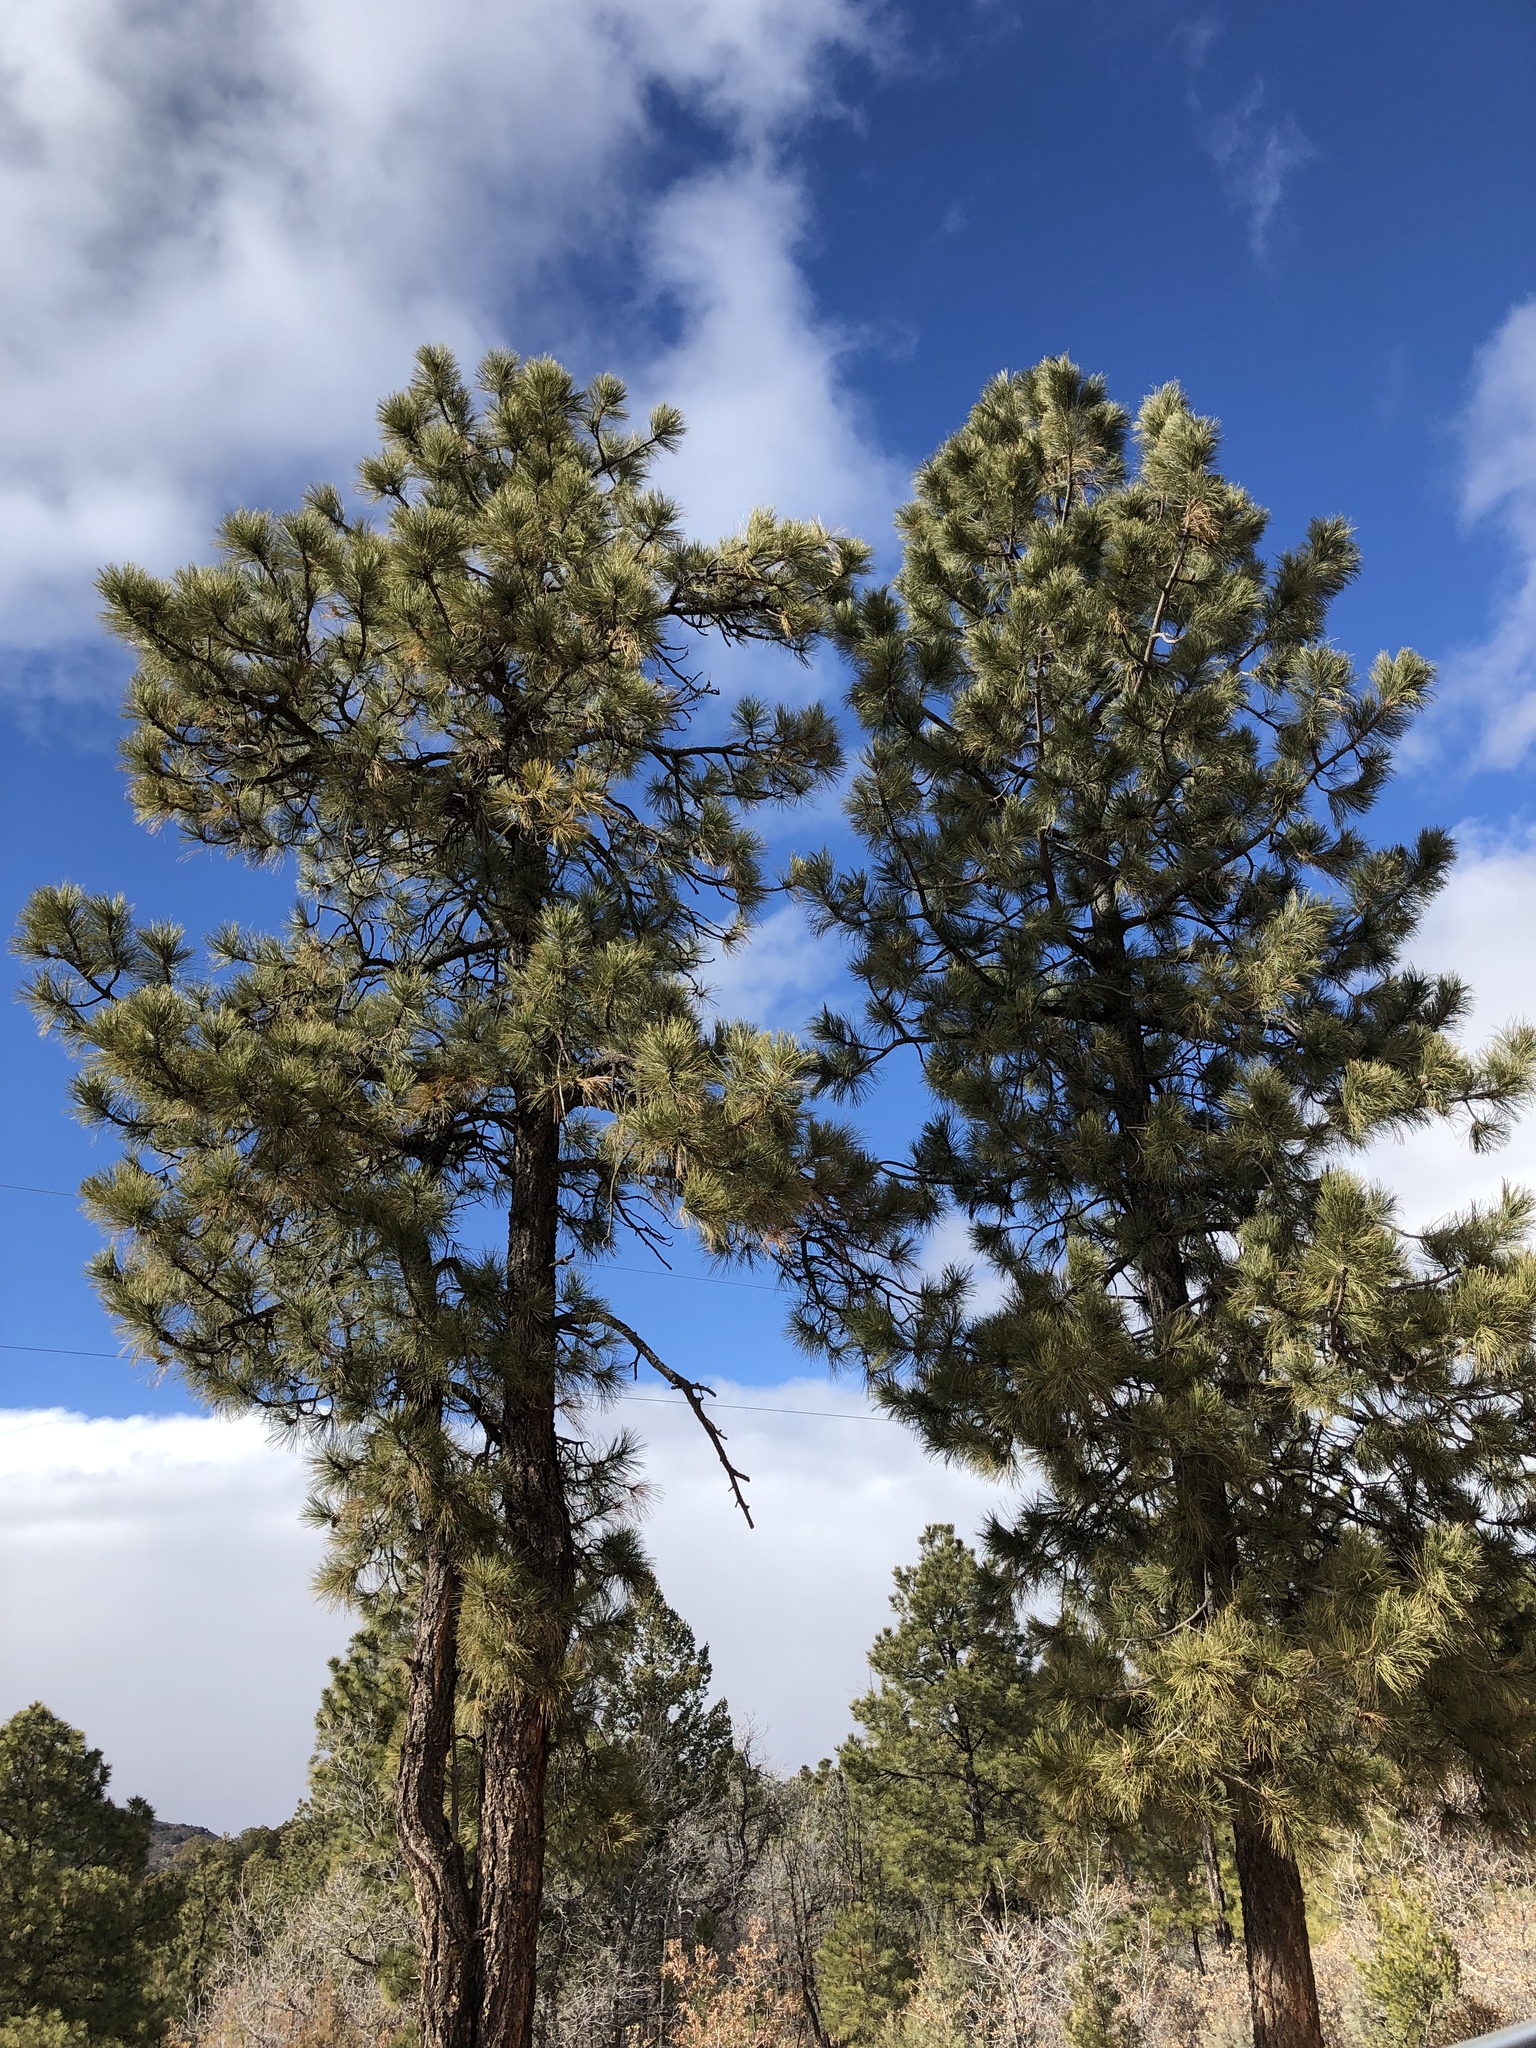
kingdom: Plantae
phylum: Tracheophyta
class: Pinopsida
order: Pinales
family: Pinaceae
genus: Pinus
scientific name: Pinus ponderosa
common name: Western yellow-pine
